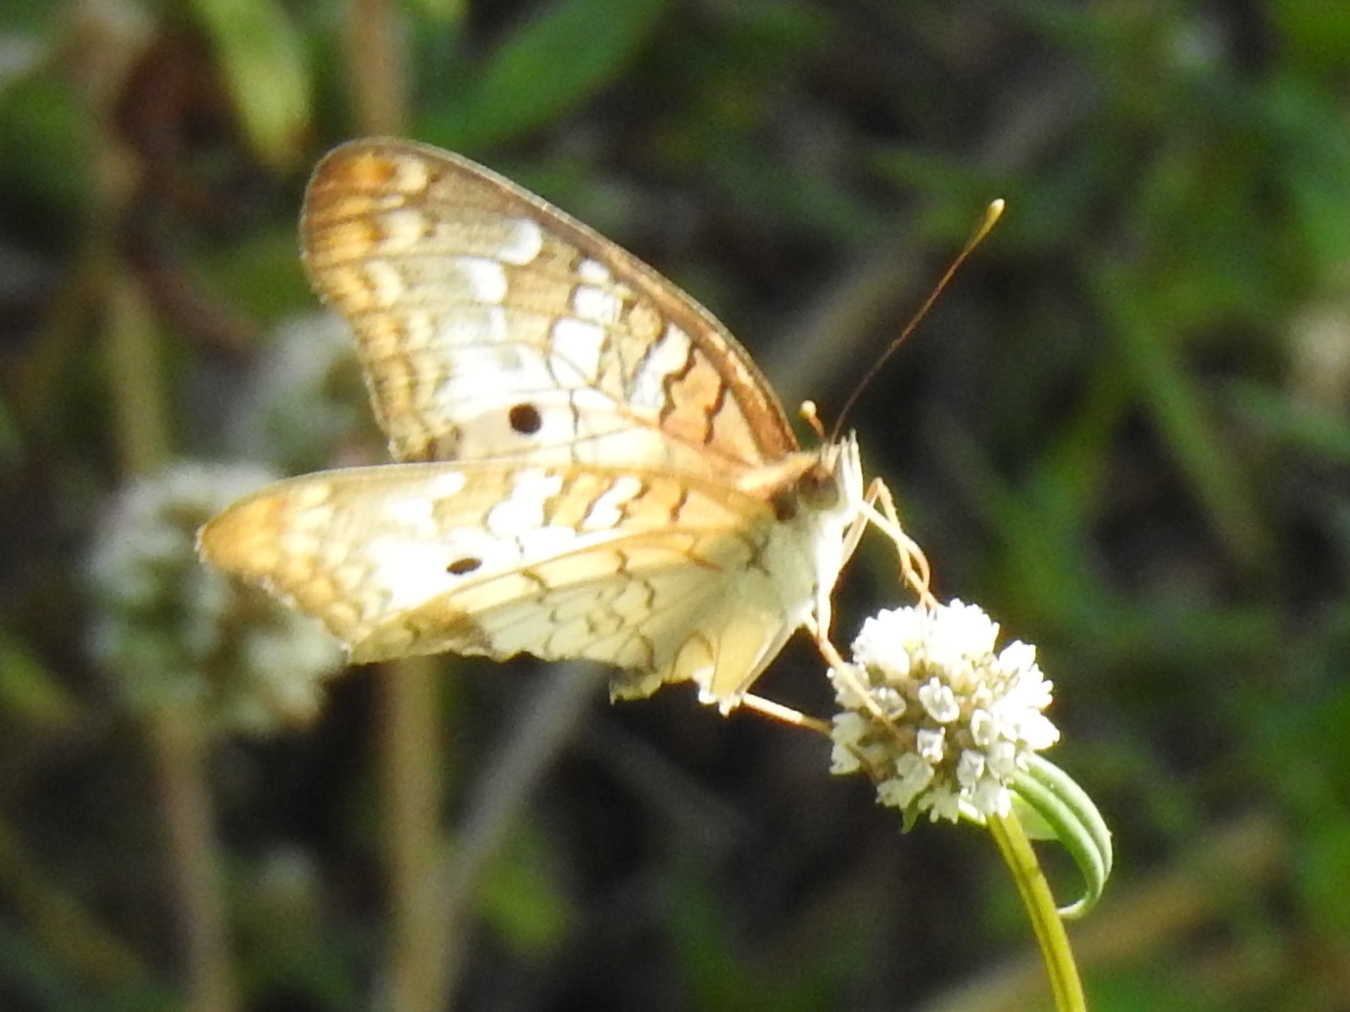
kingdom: Animalia
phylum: Arthropoda
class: Insecta
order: Lepidoptera
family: Nymphalidae
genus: Anartia
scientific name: Anartia jatrophae
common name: White peacock
